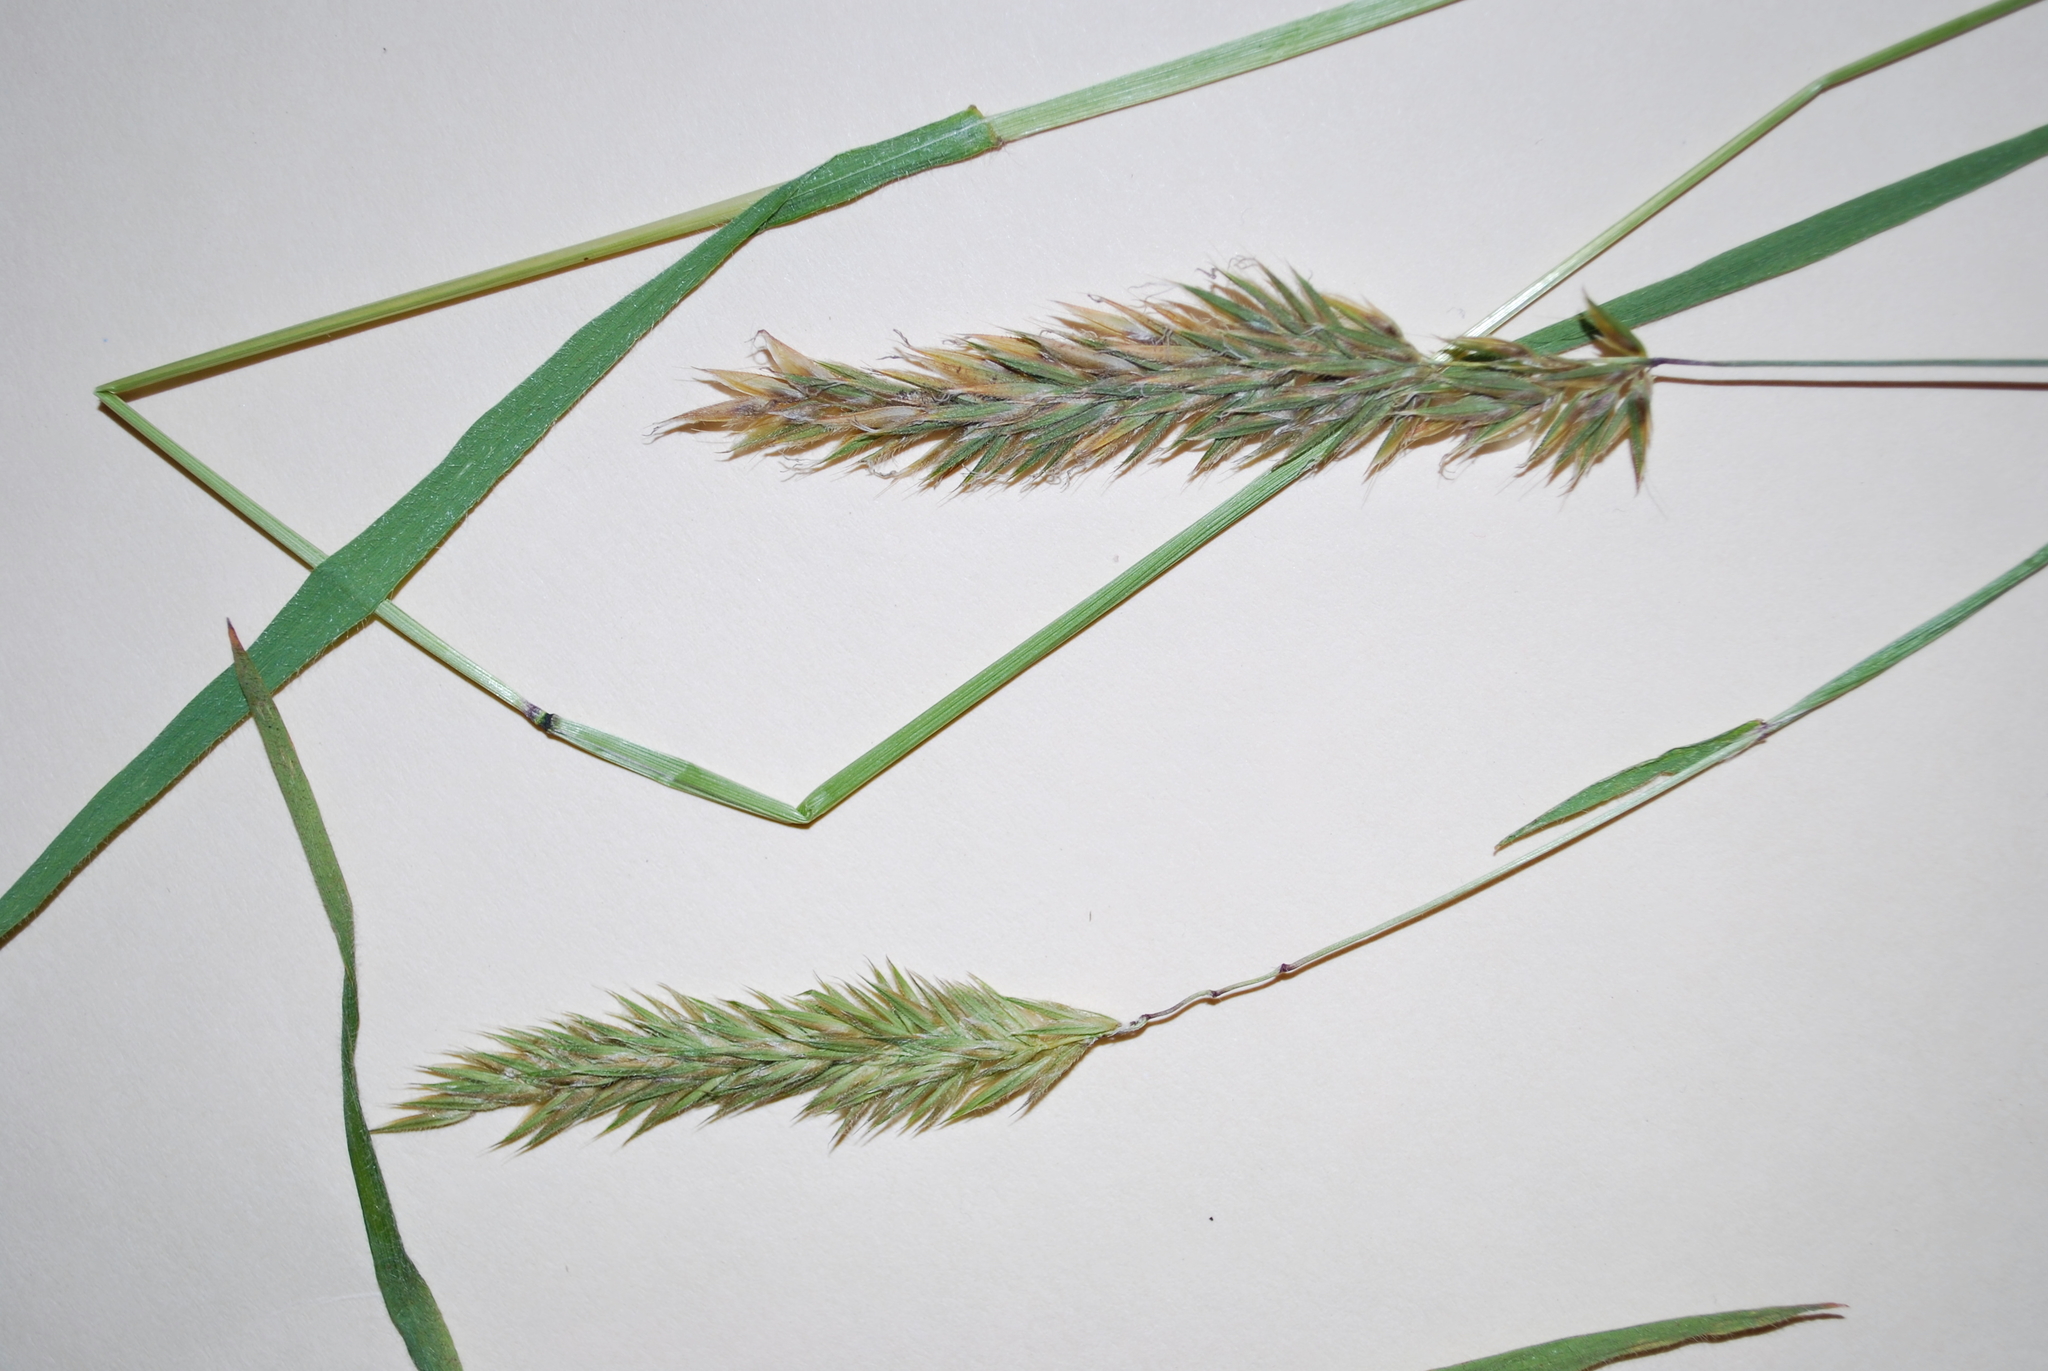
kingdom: Plantae
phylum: Tracheophyta
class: Liliopsida
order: Poales
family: Poaceae
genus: Anthoxanthum
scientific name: Anthoxanthum odoratum
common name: Sweet vernalgrass
